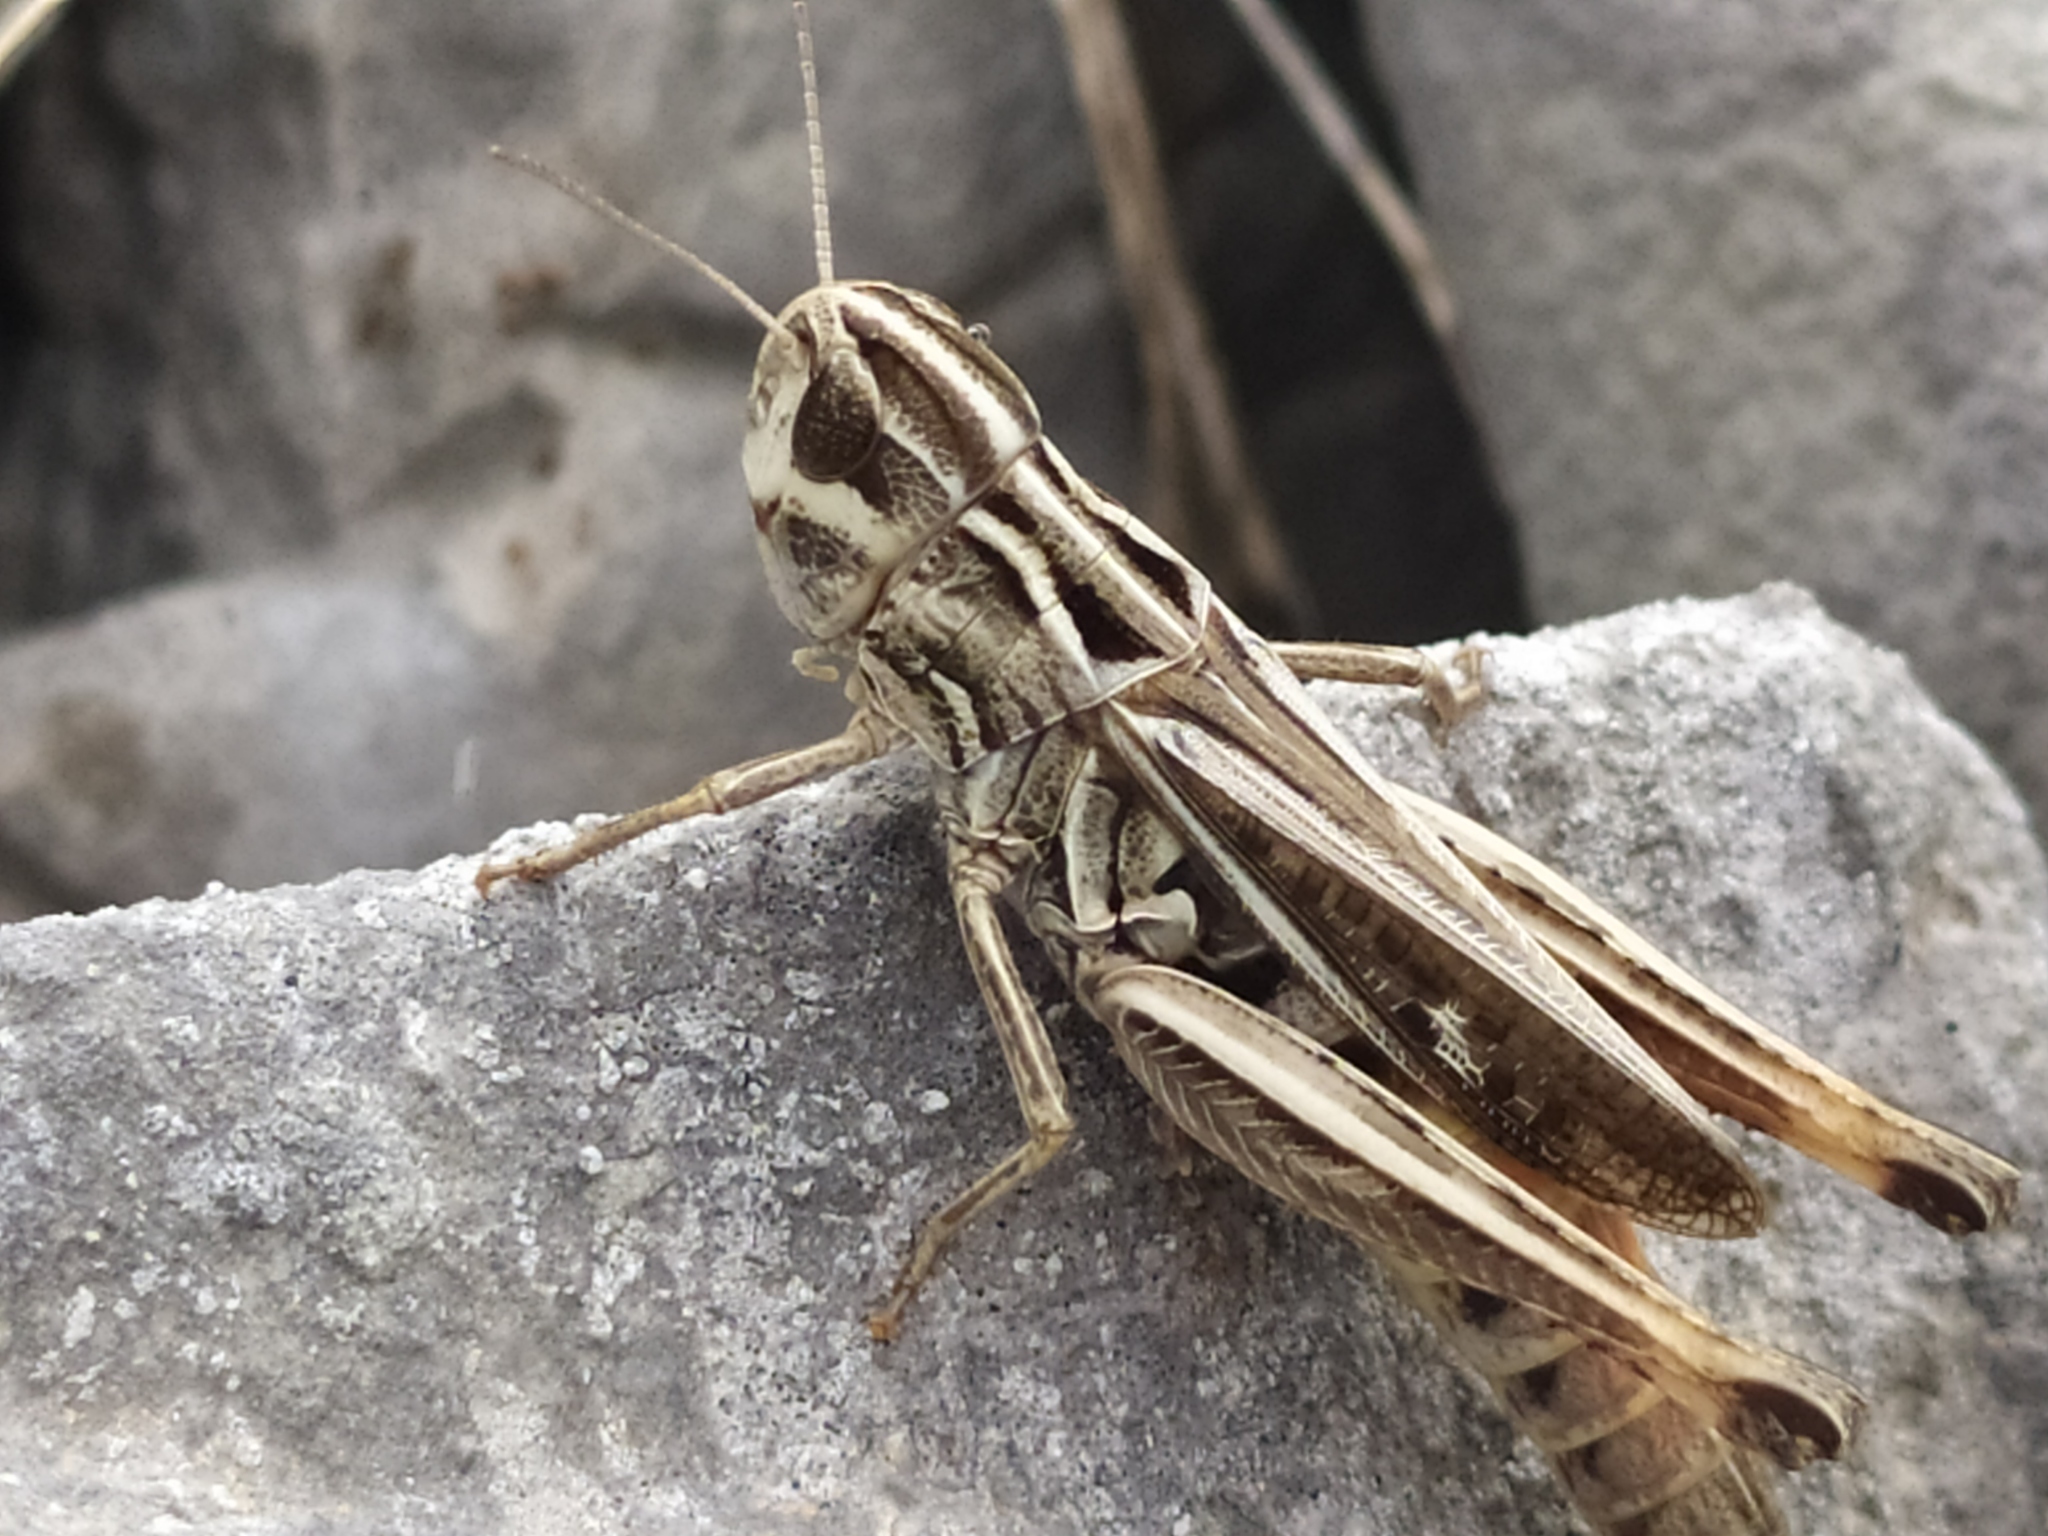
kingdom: Animalia
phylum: Arthropoda
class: Insecta
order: Orthoptera
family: Acrididae
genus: Stenobothrus
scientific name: Stenobothrus rubicundulus
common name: Wing-buzzing grasshopper
